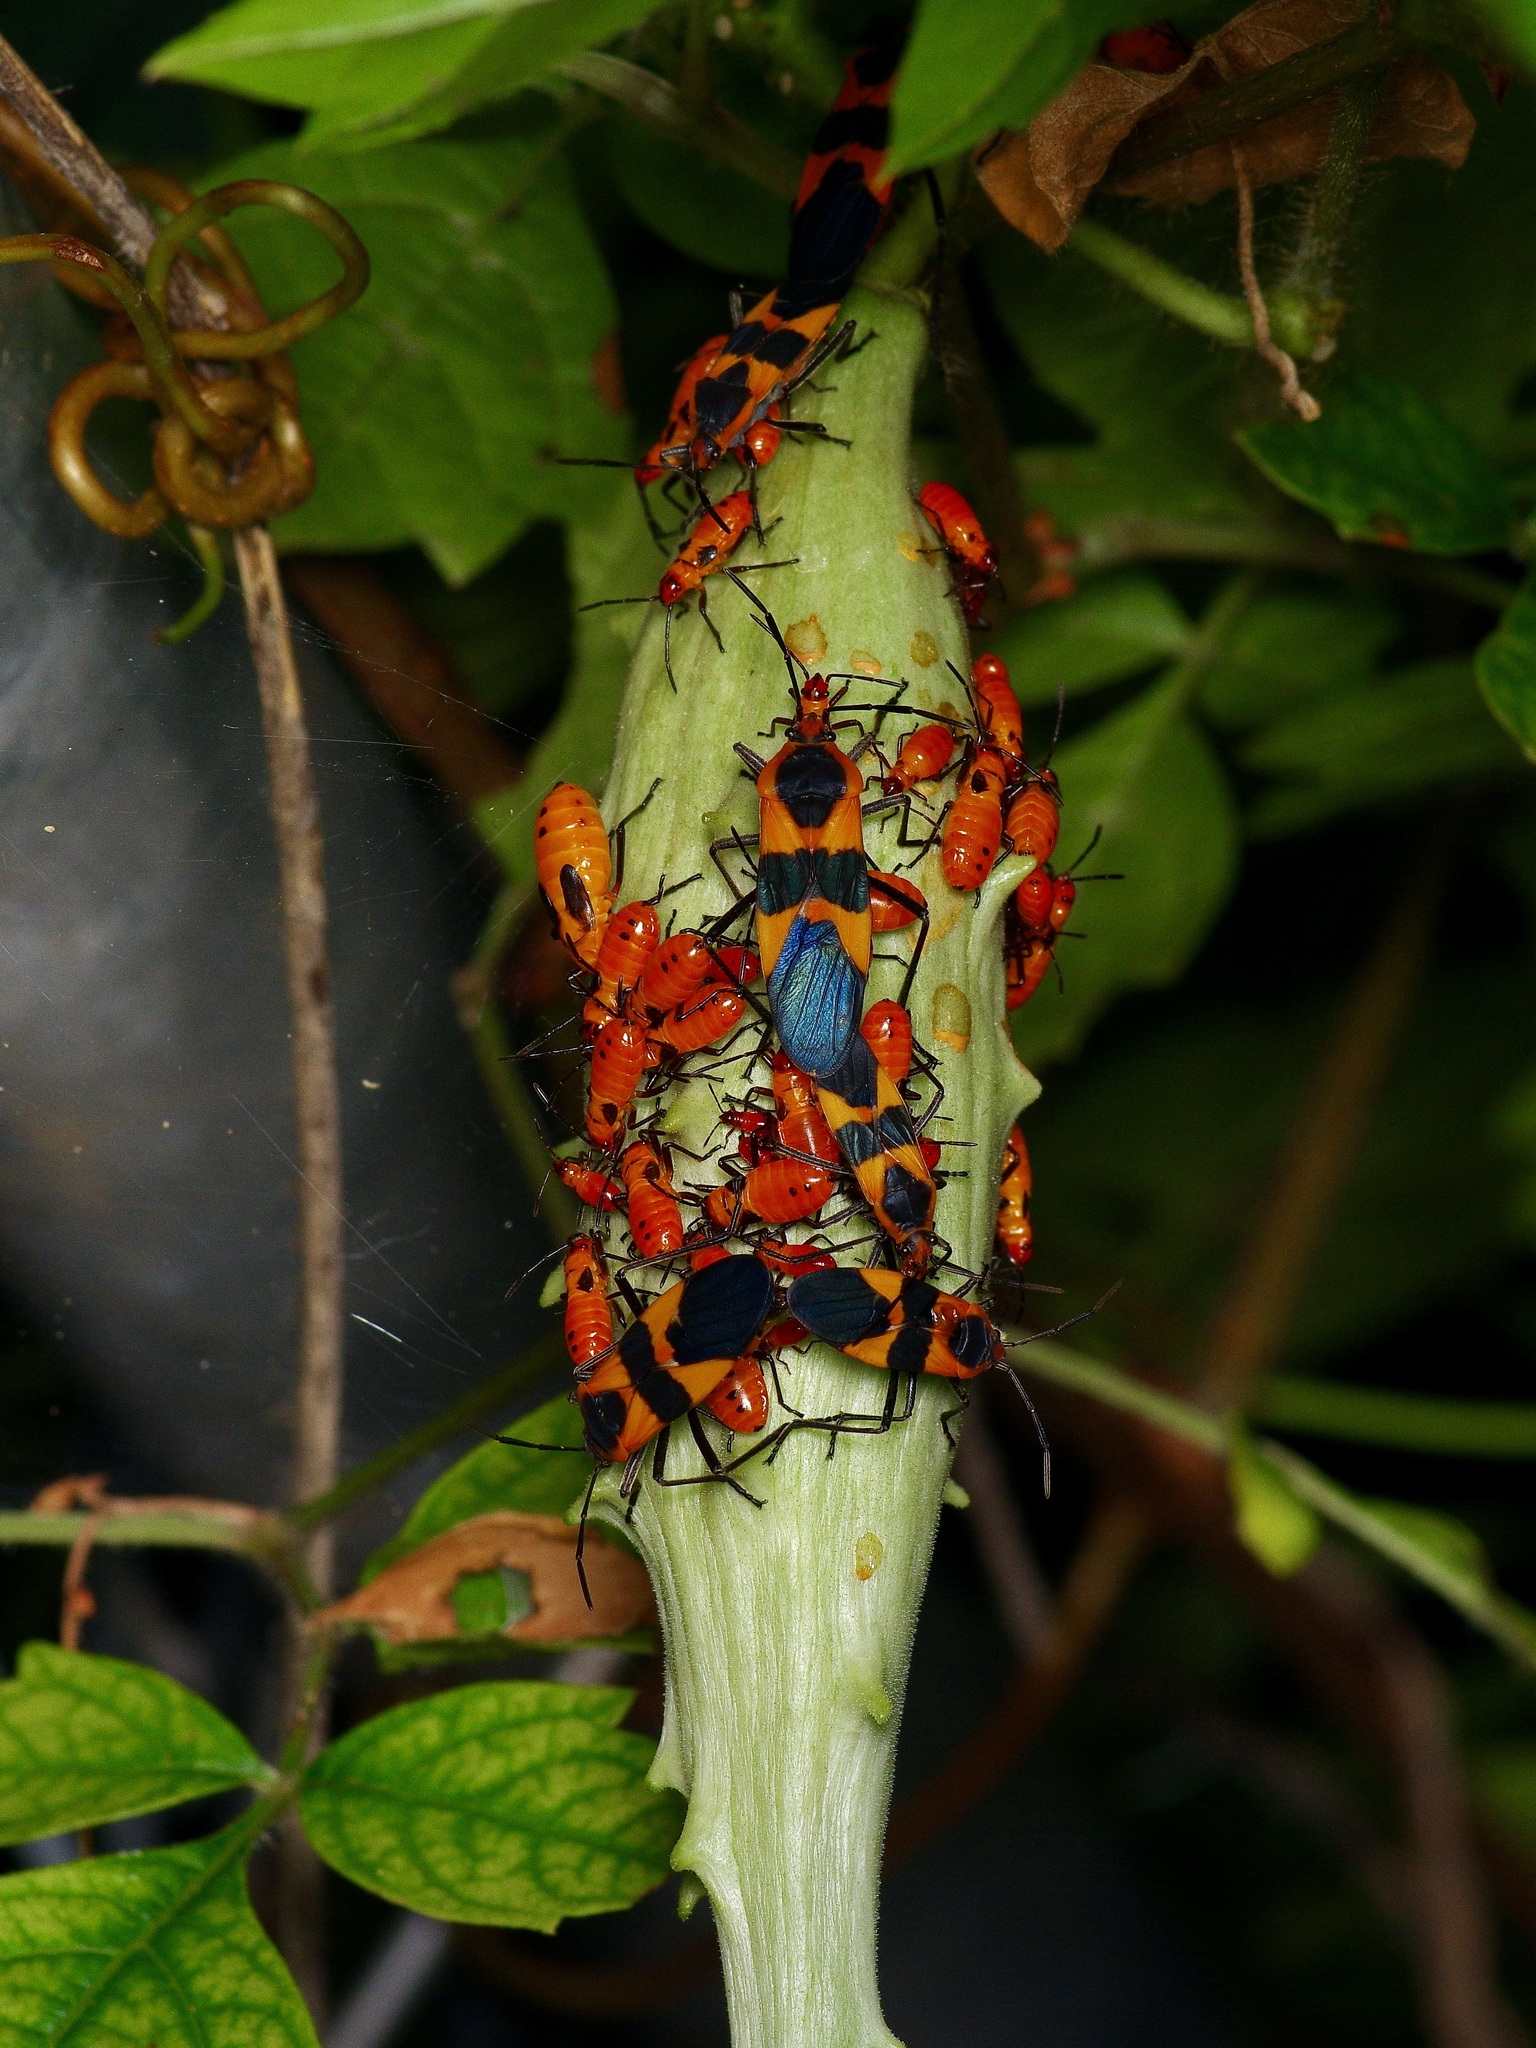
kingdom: Animalia
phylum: Arthropoda
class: Insecta
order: Hemiptera
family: Lygaeidae
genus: Oncopeltus
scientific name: Oncopeltus fasciatus
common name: Large milkweed bug
